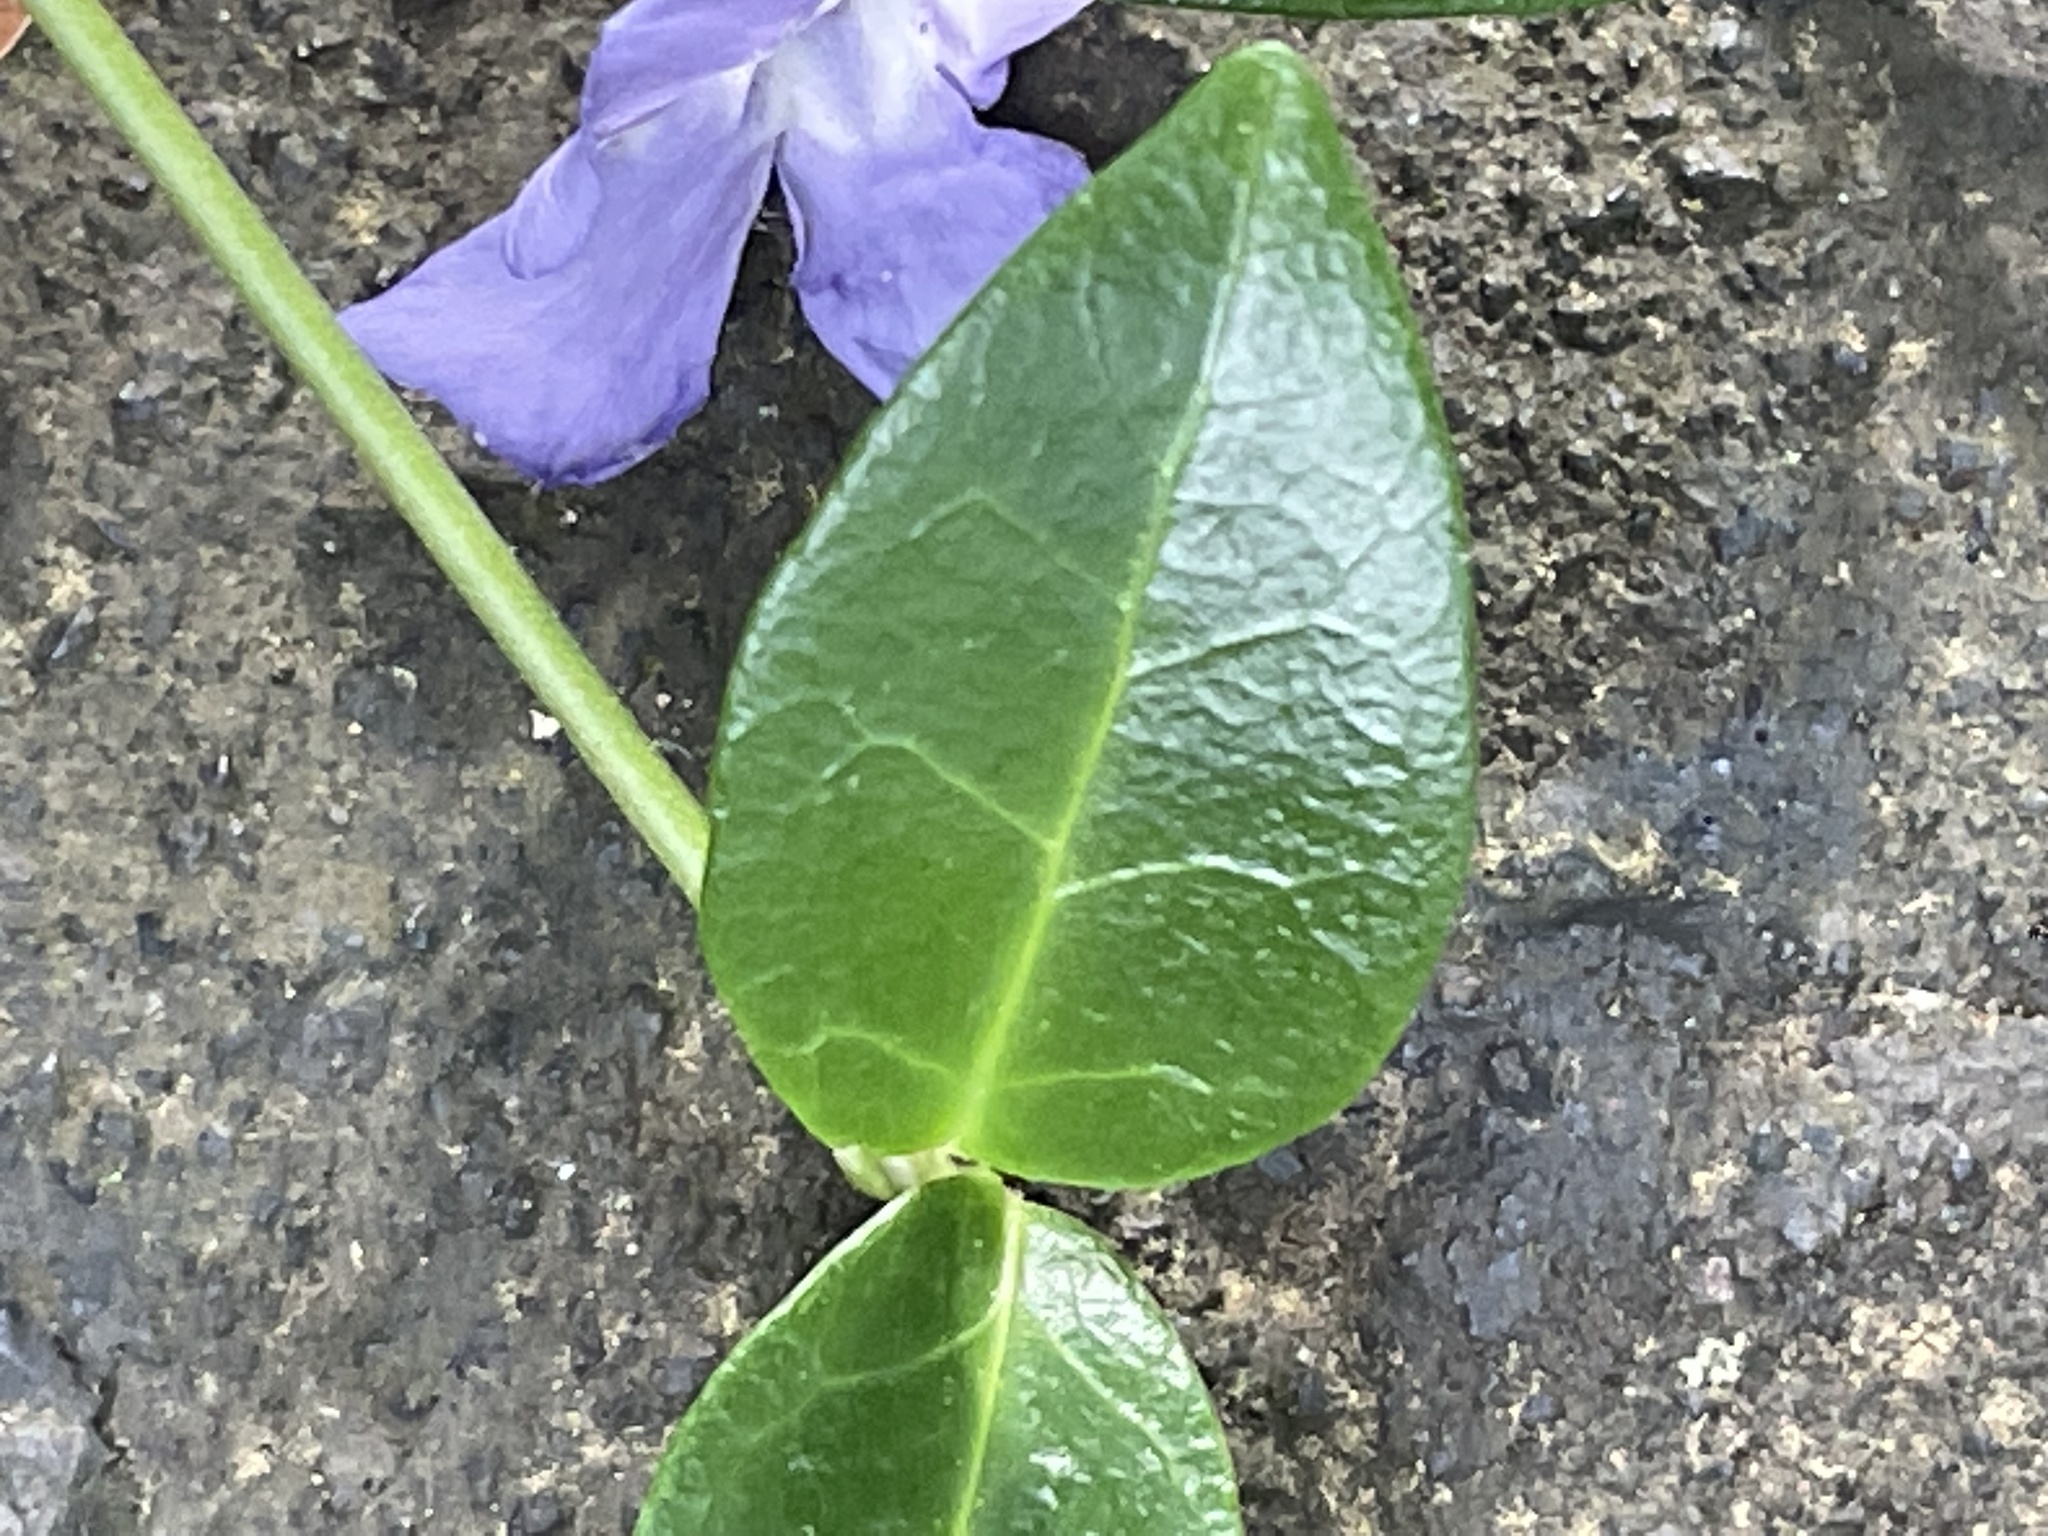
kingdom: Plantae
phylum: Tracheophyta
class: Magnoliopsida
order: Gentianales
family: Apocynaceae
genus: Vinca
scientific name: Vinca minor
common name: Lesser periwinkle
